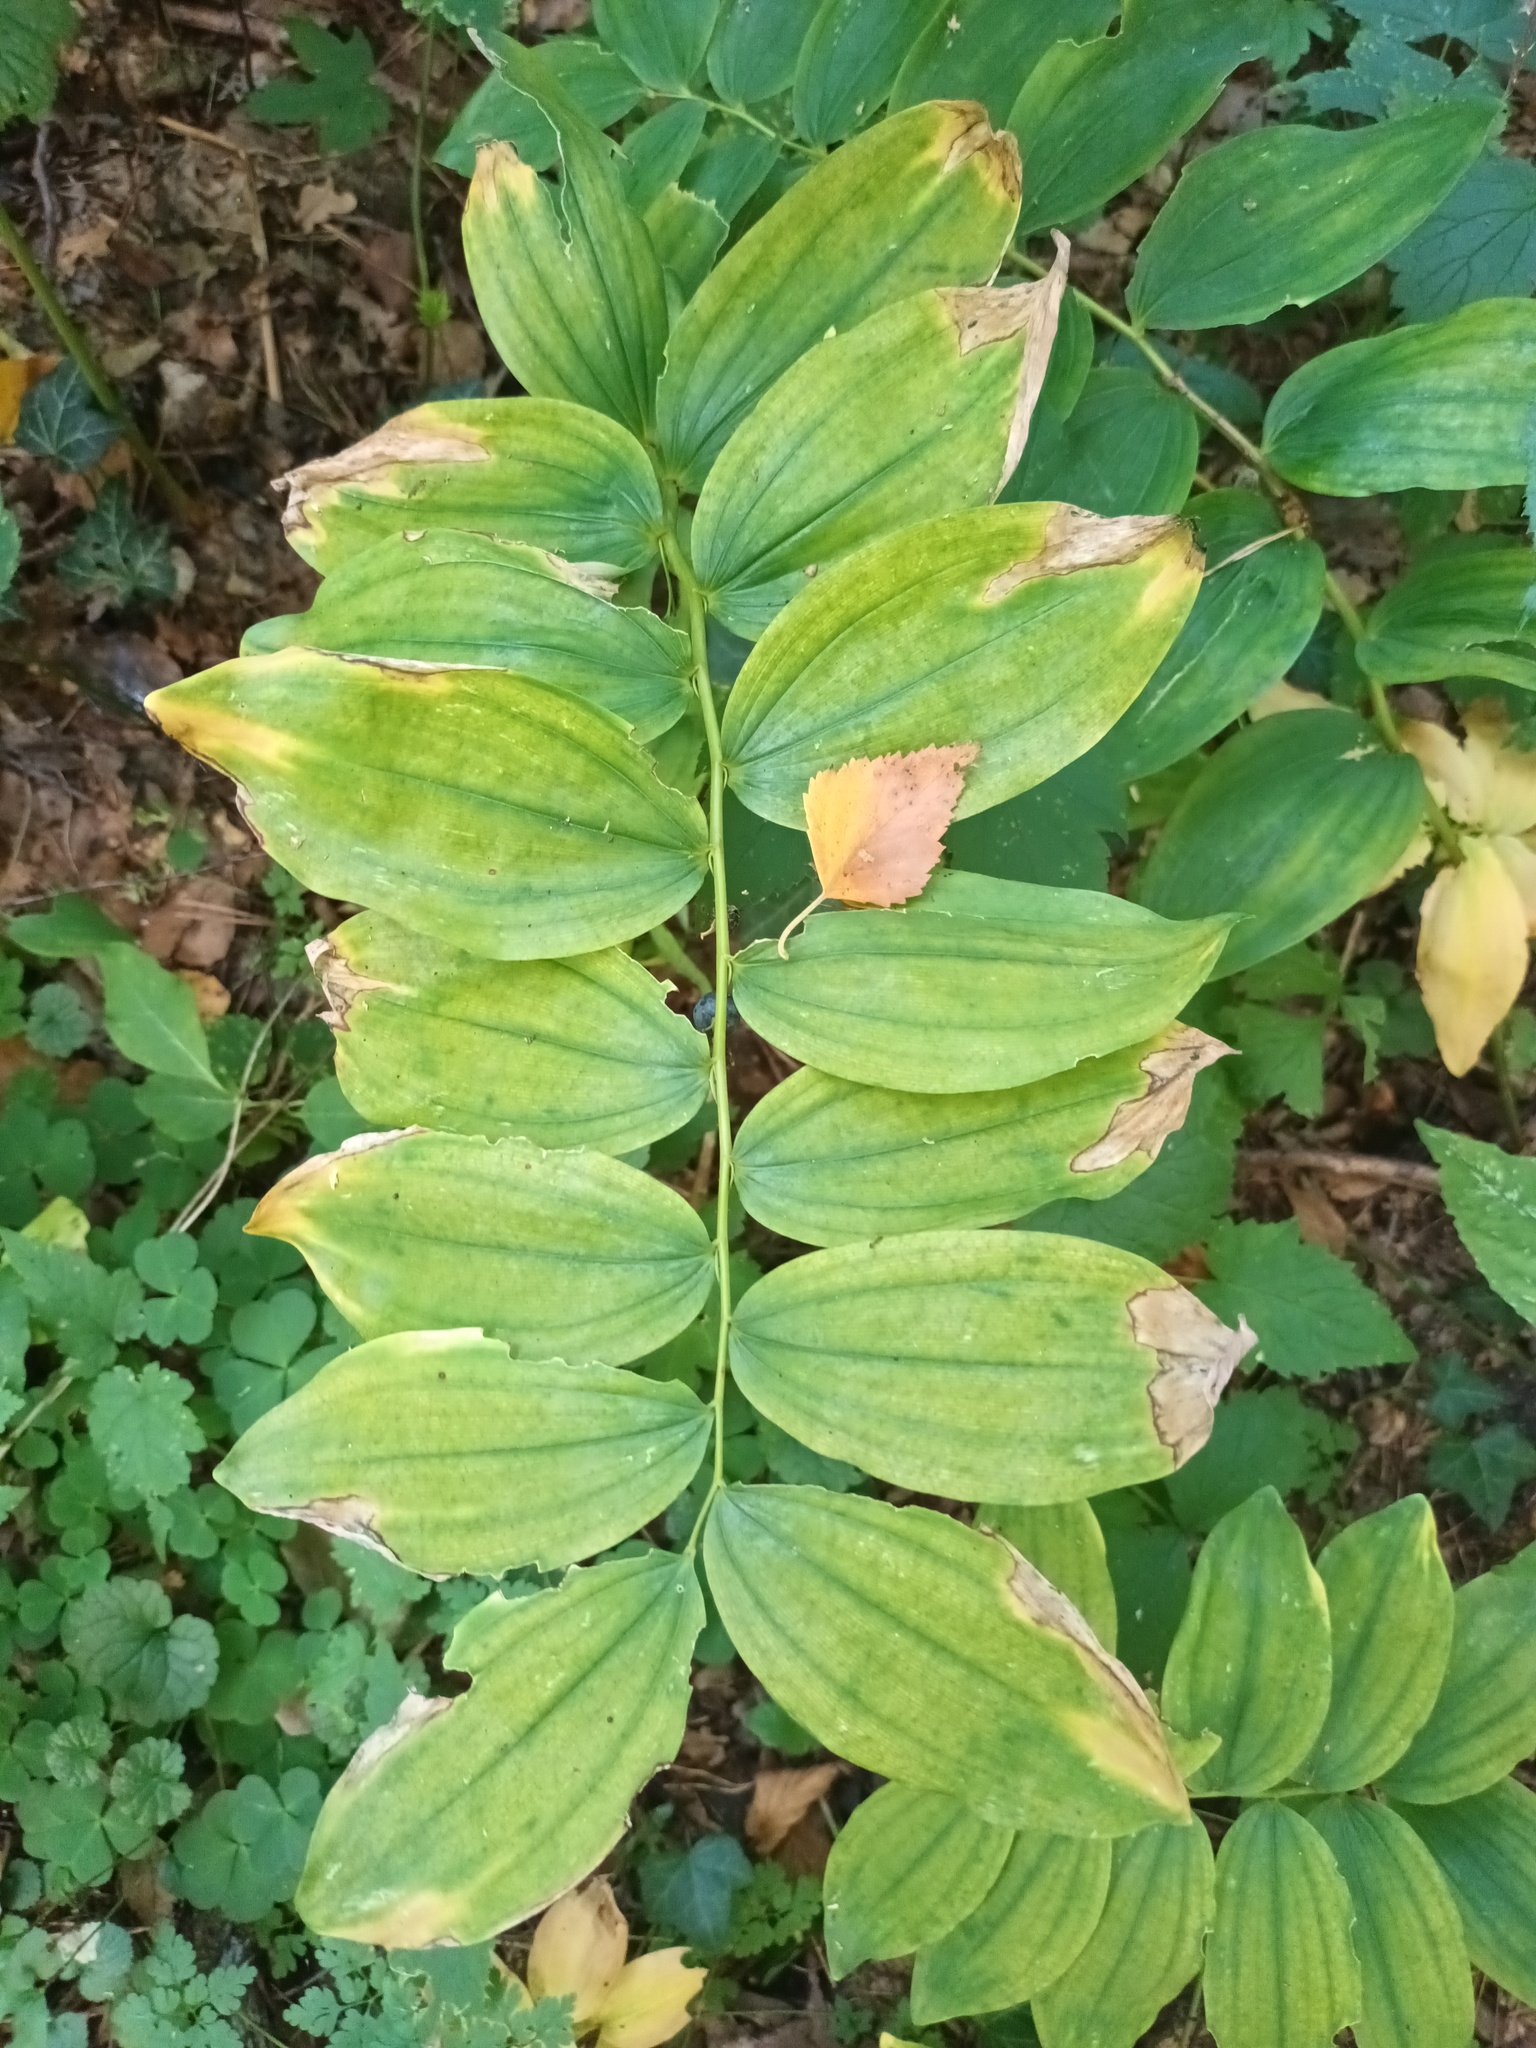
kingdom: Plantae
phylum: Tracheophyta
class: Liliopsida
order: Asparagales
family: Asparagaceae
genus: Polygonatum
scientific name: Polygonatum multiflorum
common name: Solomon's-seal
